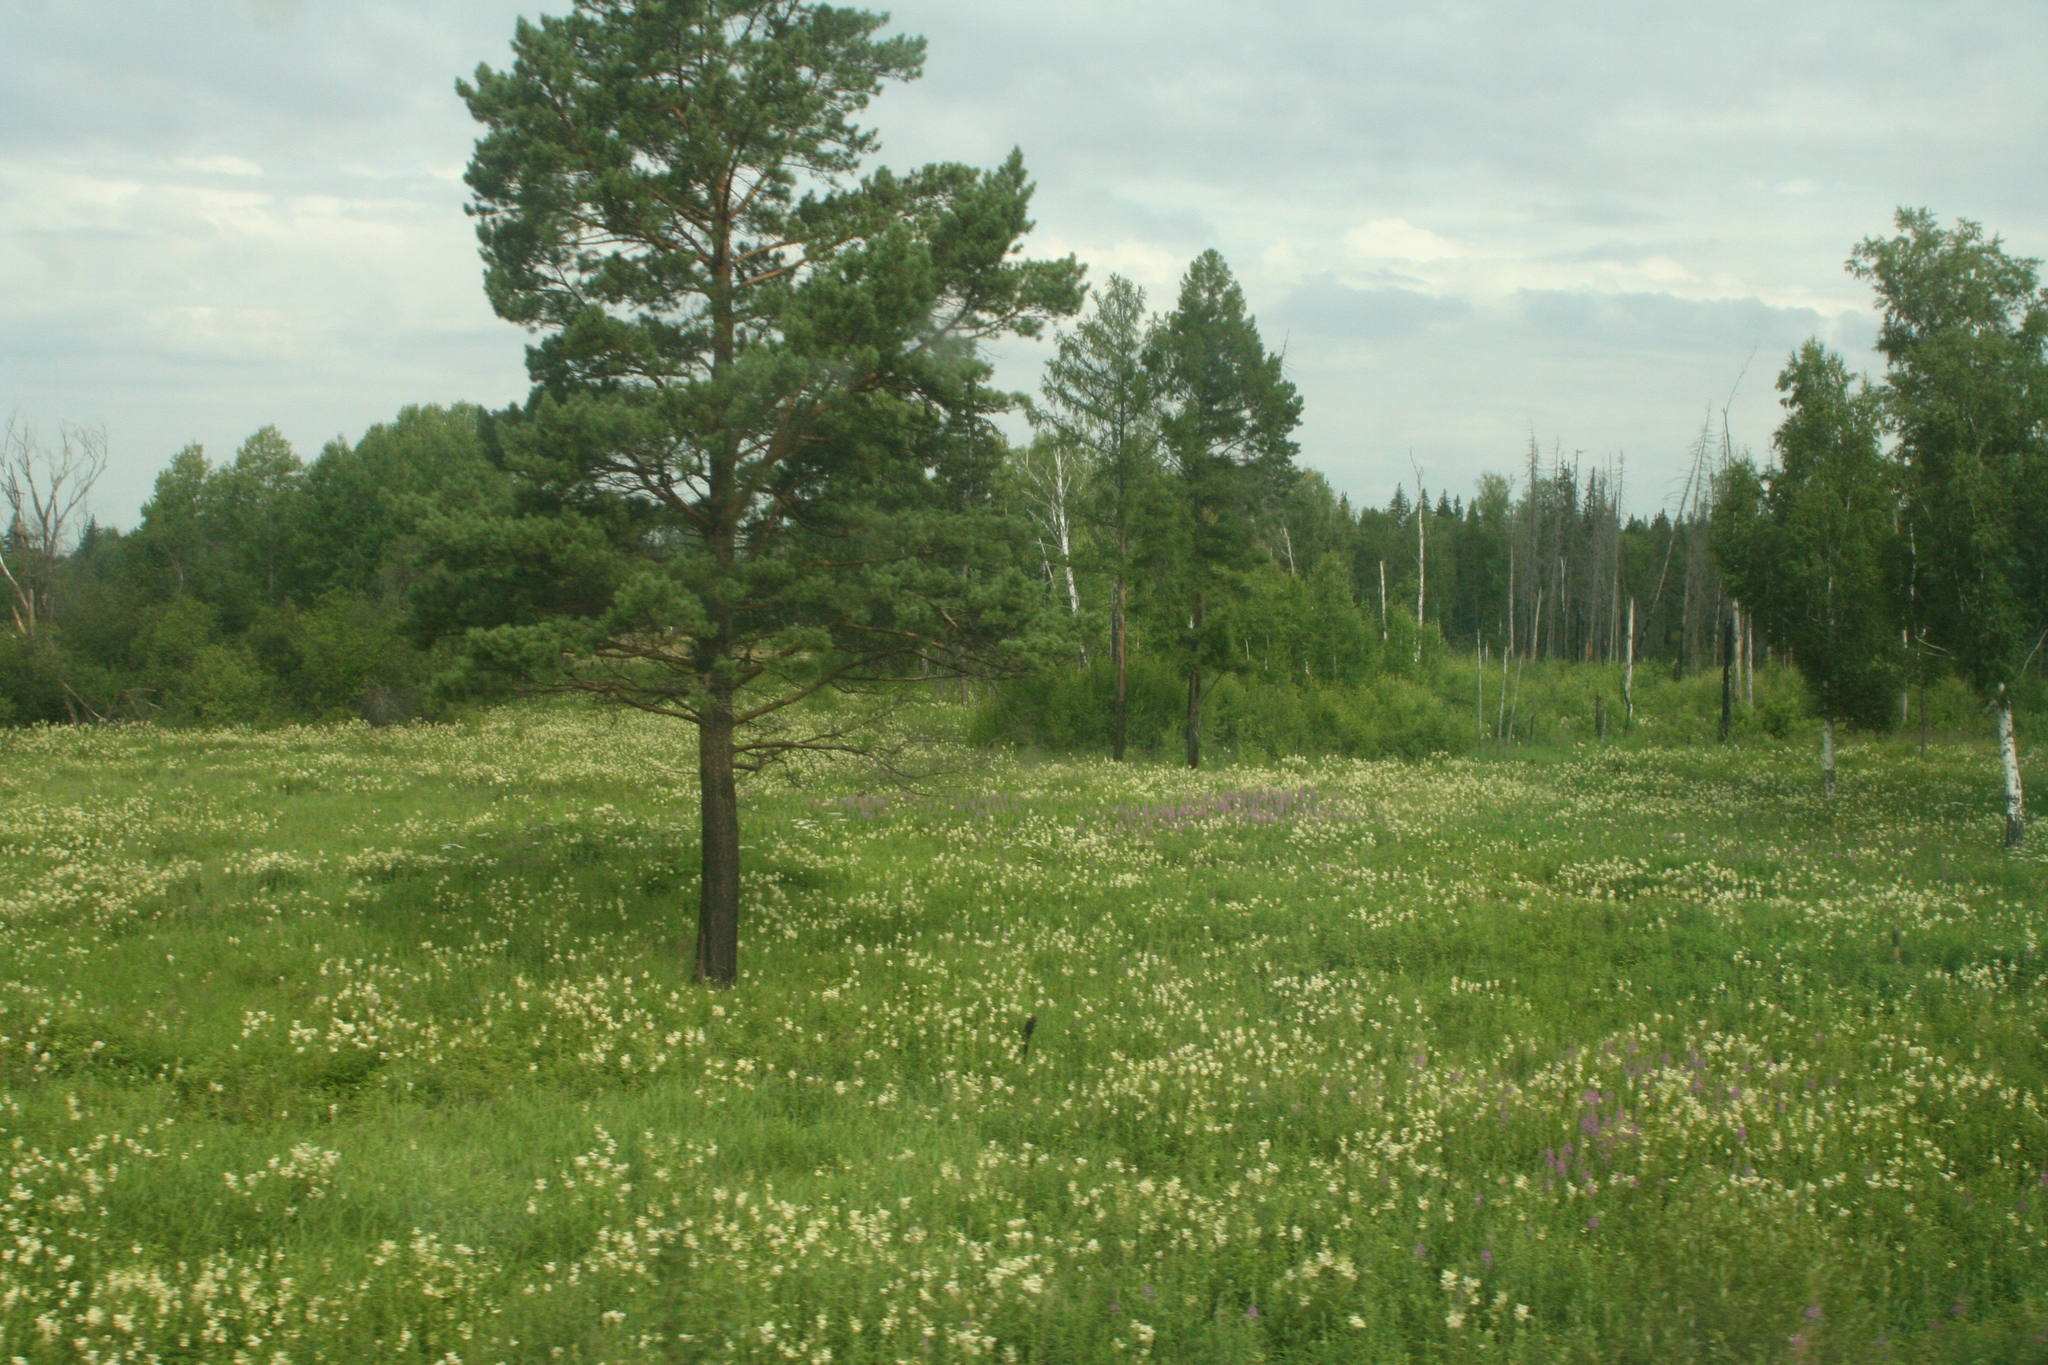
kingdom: Plantae
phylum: Tracheophyta
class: Pinopsida
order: Pinales
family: Pinaceae
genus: Pinus
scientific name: Pinus sylvestris
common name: Scots pine
